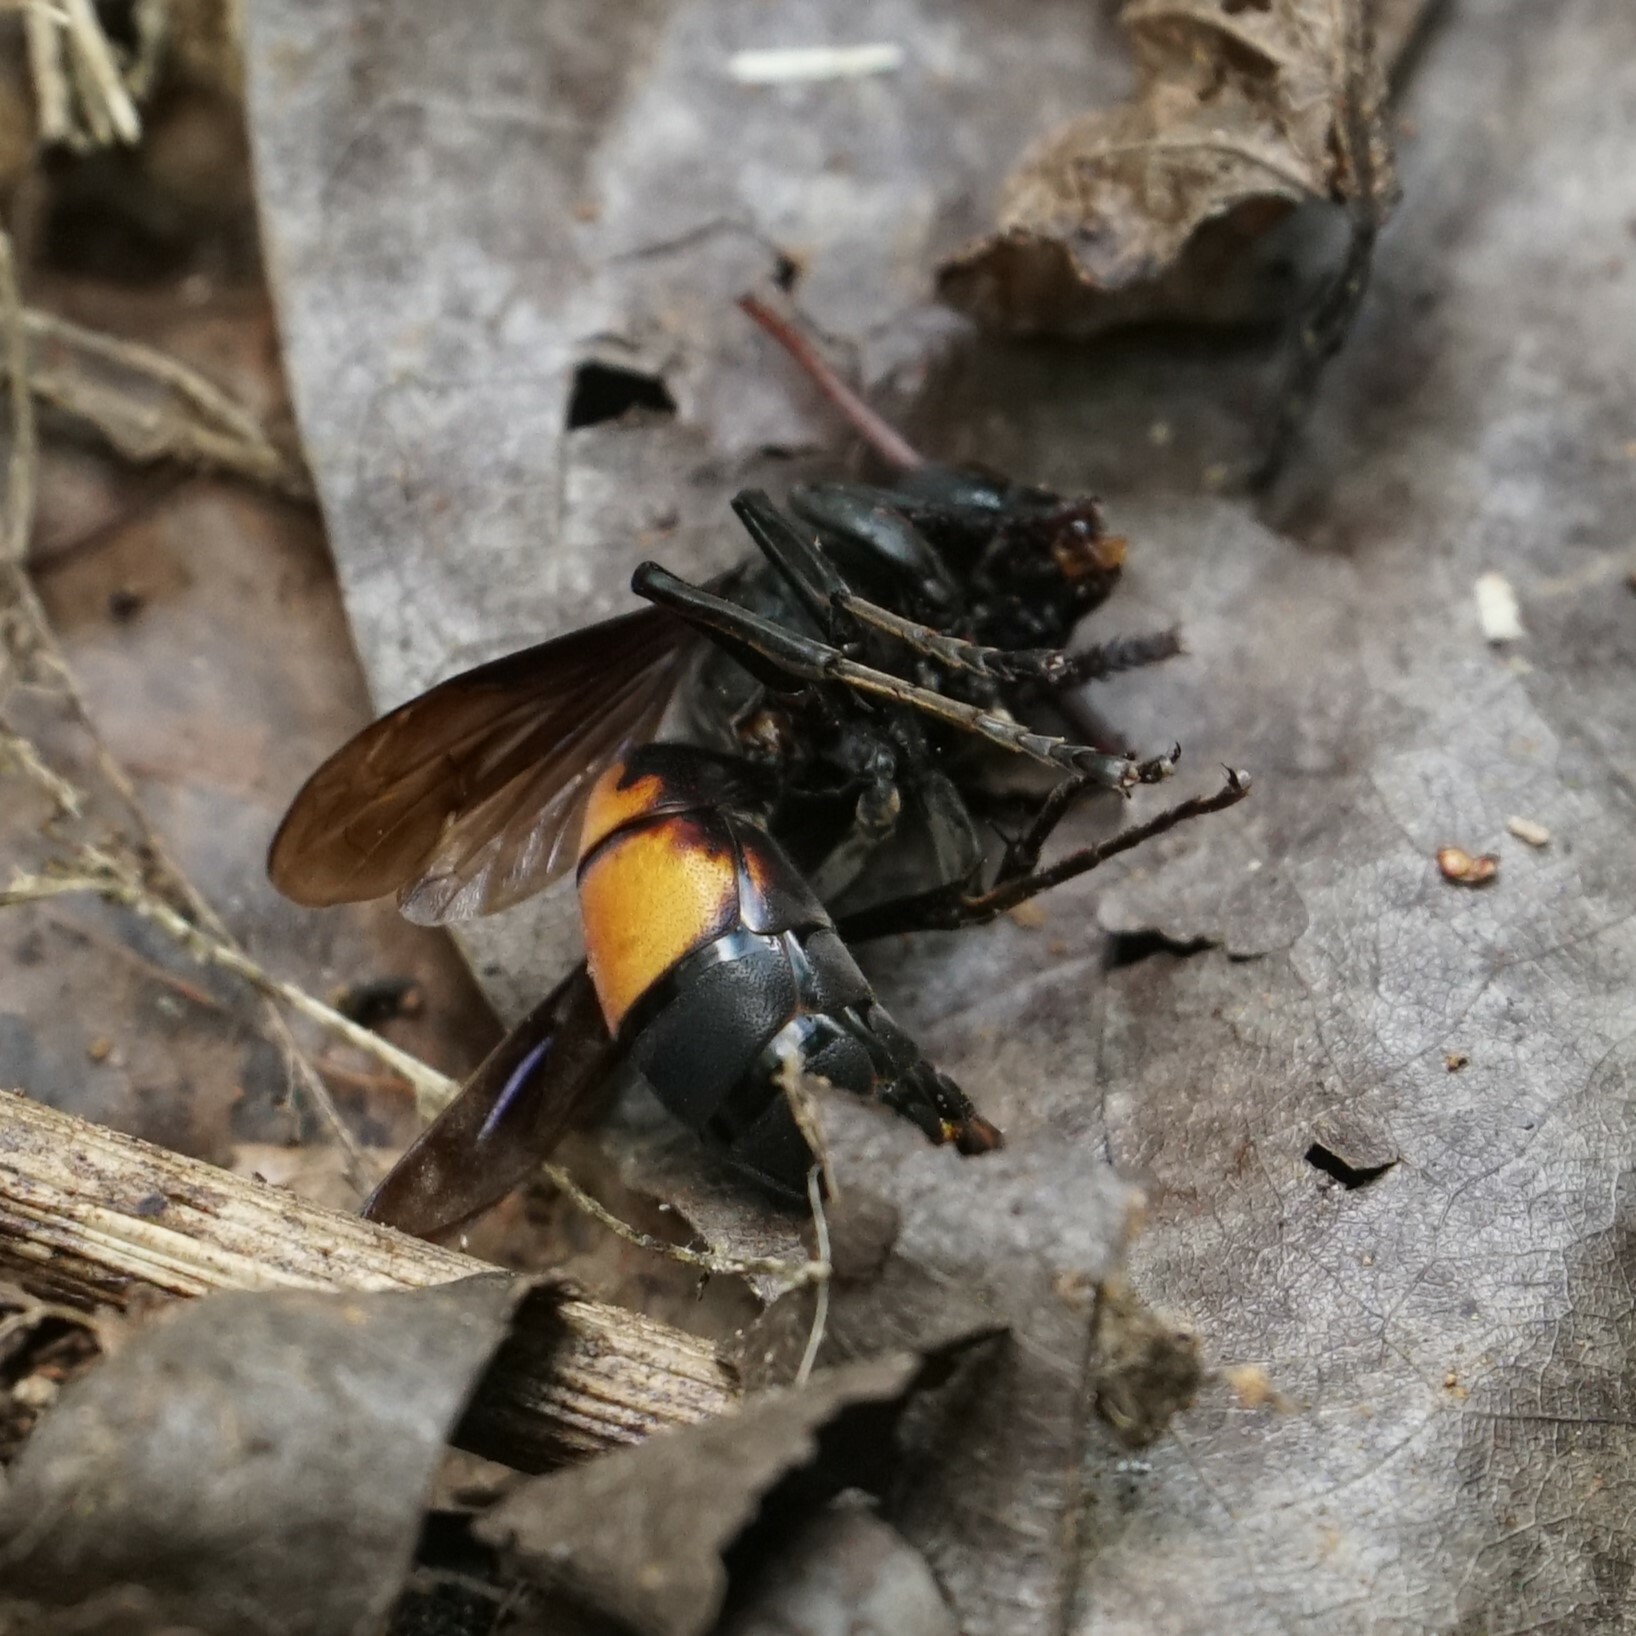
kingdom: Animalia
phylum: Arthropoda
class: Insecta
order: Hymenoptera
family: Vespidae
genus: Vespa
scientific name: Vespa affinis
